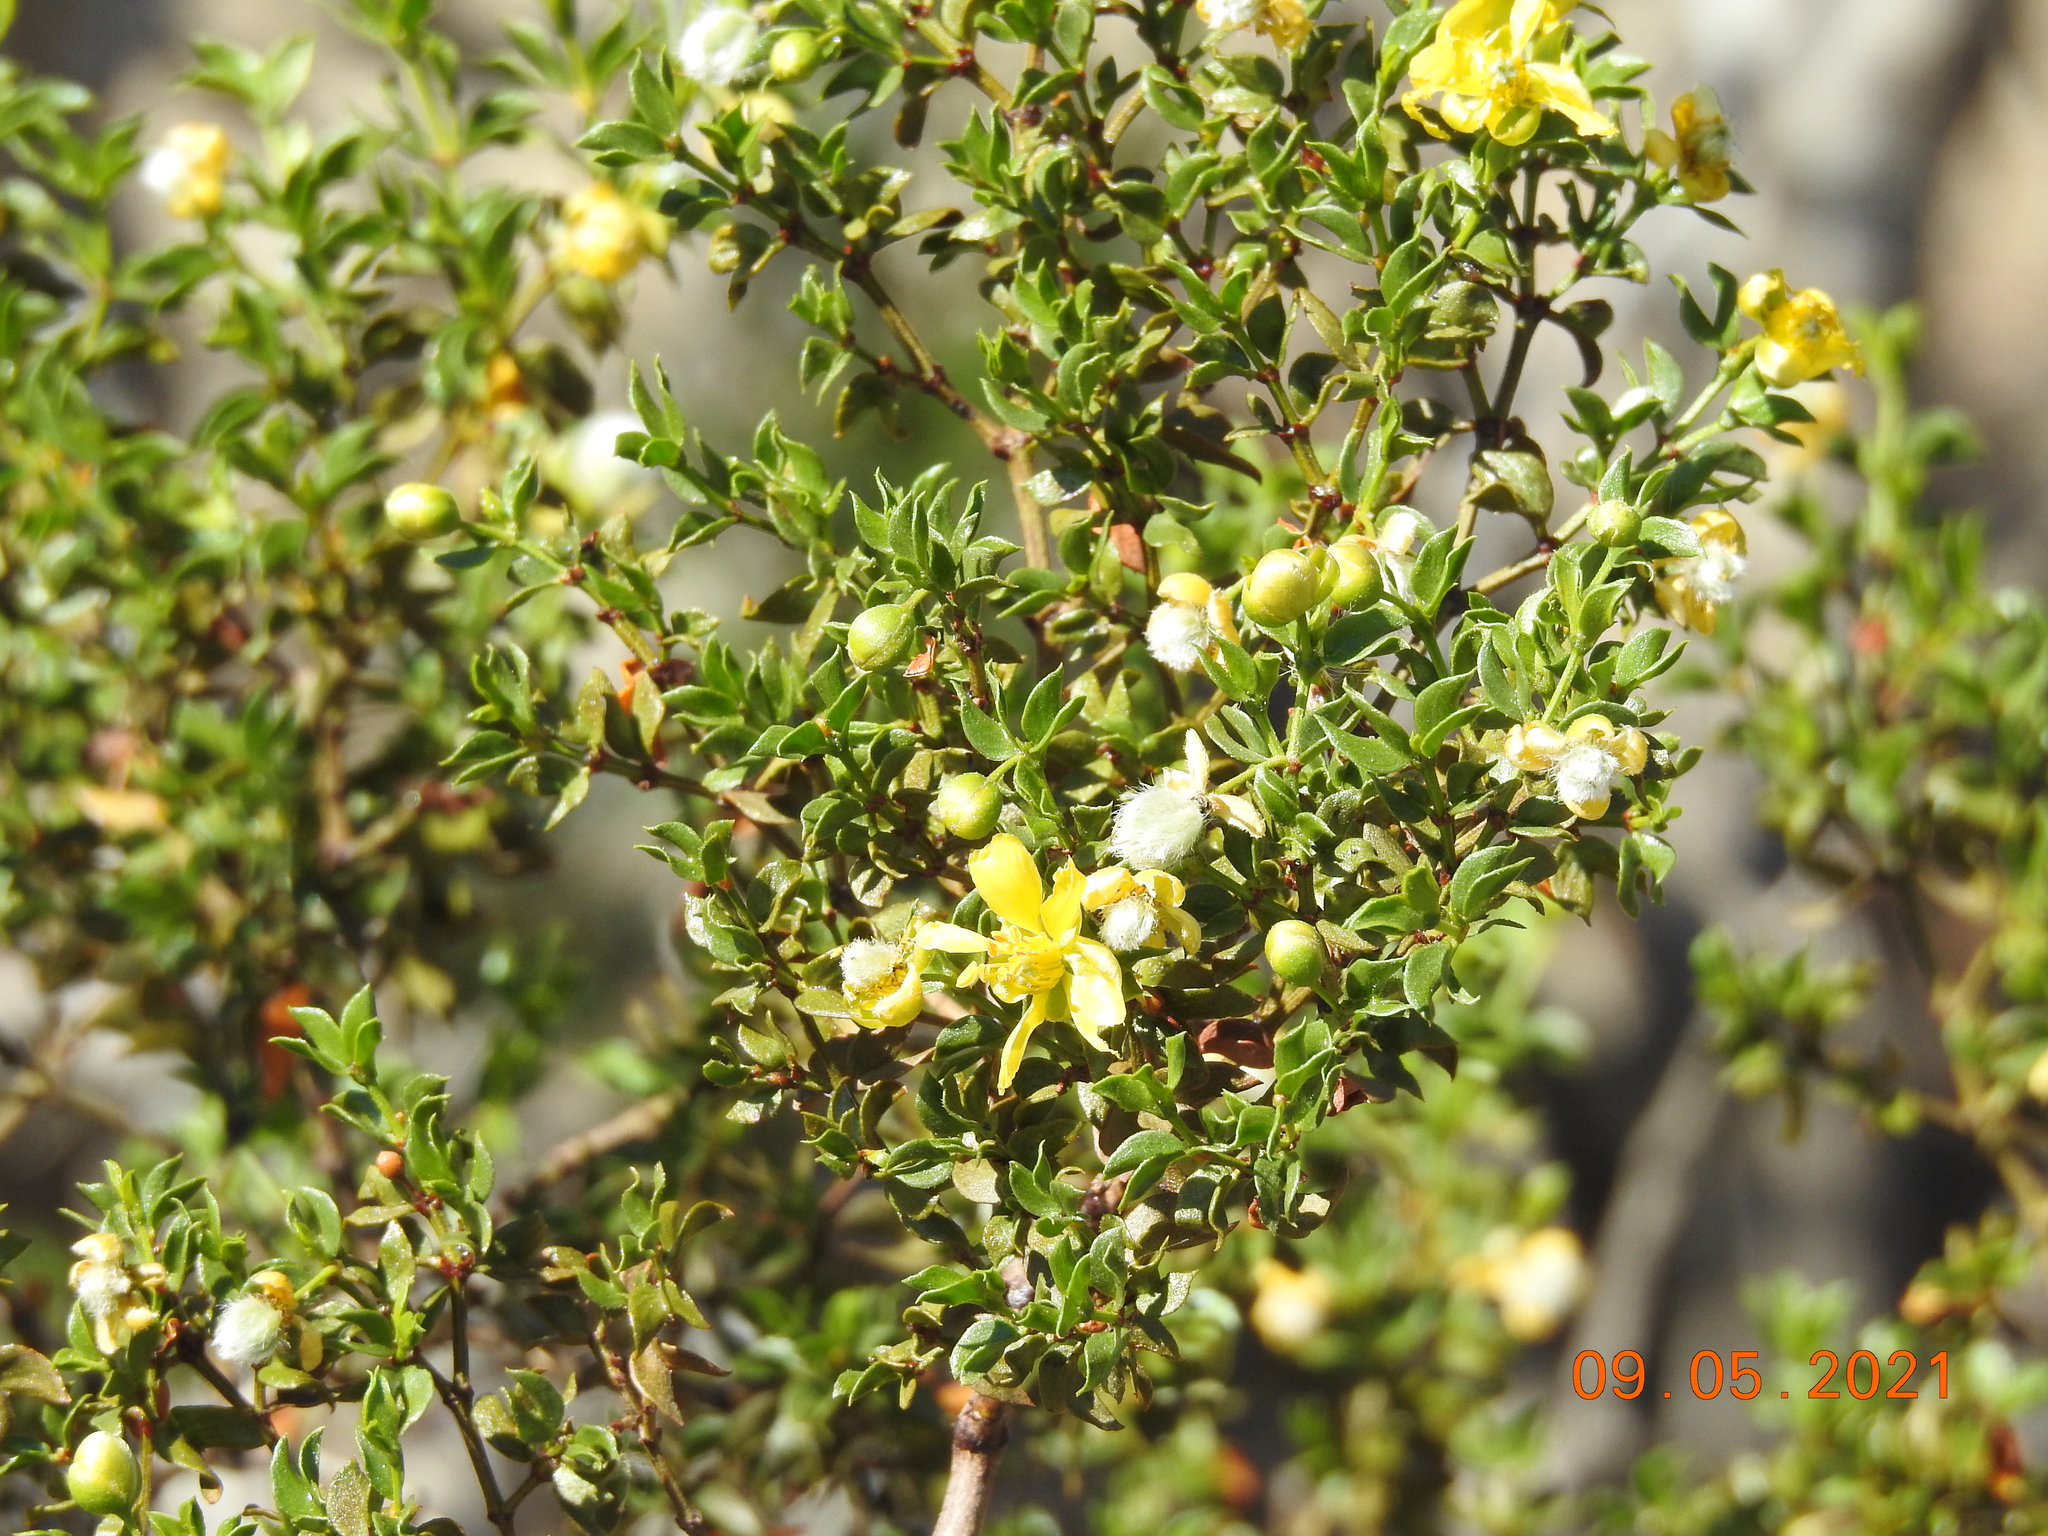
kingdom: Plantae
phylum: Tracheophyta
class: Magnoliopsida
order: Zygophyllales
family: Zygophyllaceae
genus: Larrea
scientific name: Larrea tridentata
